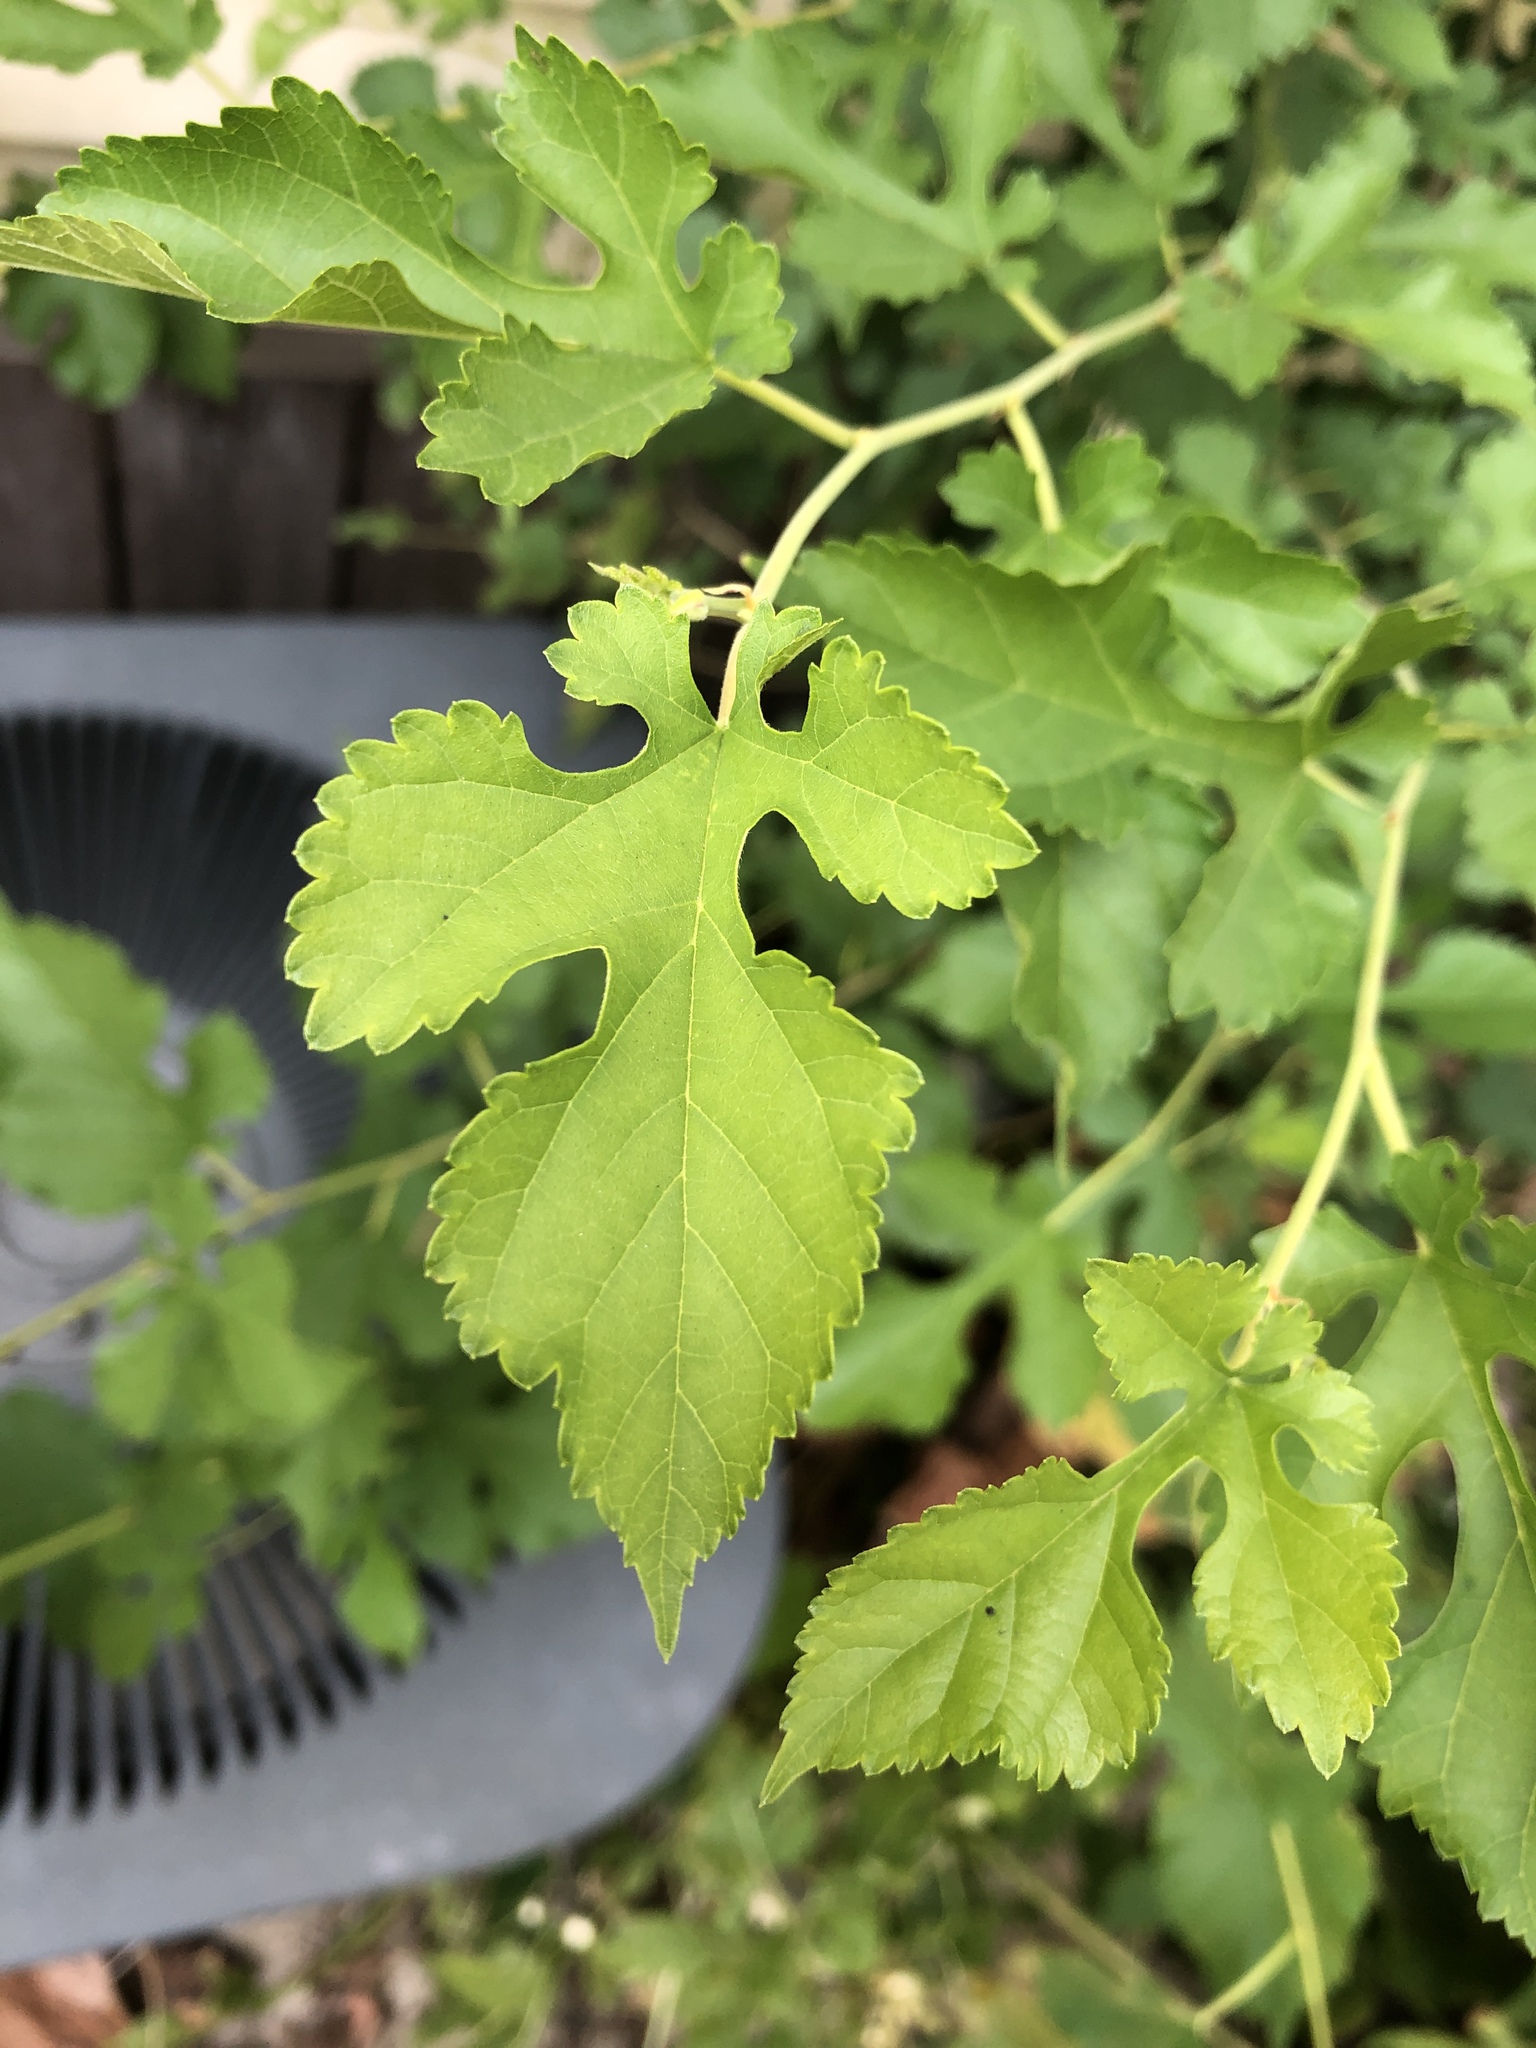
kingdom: Plantae
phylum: Tracheophyta
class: Magnoliopsida
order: Rosales
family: Moraceae
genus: Morus
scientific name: Morus alba
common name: White mulberry
